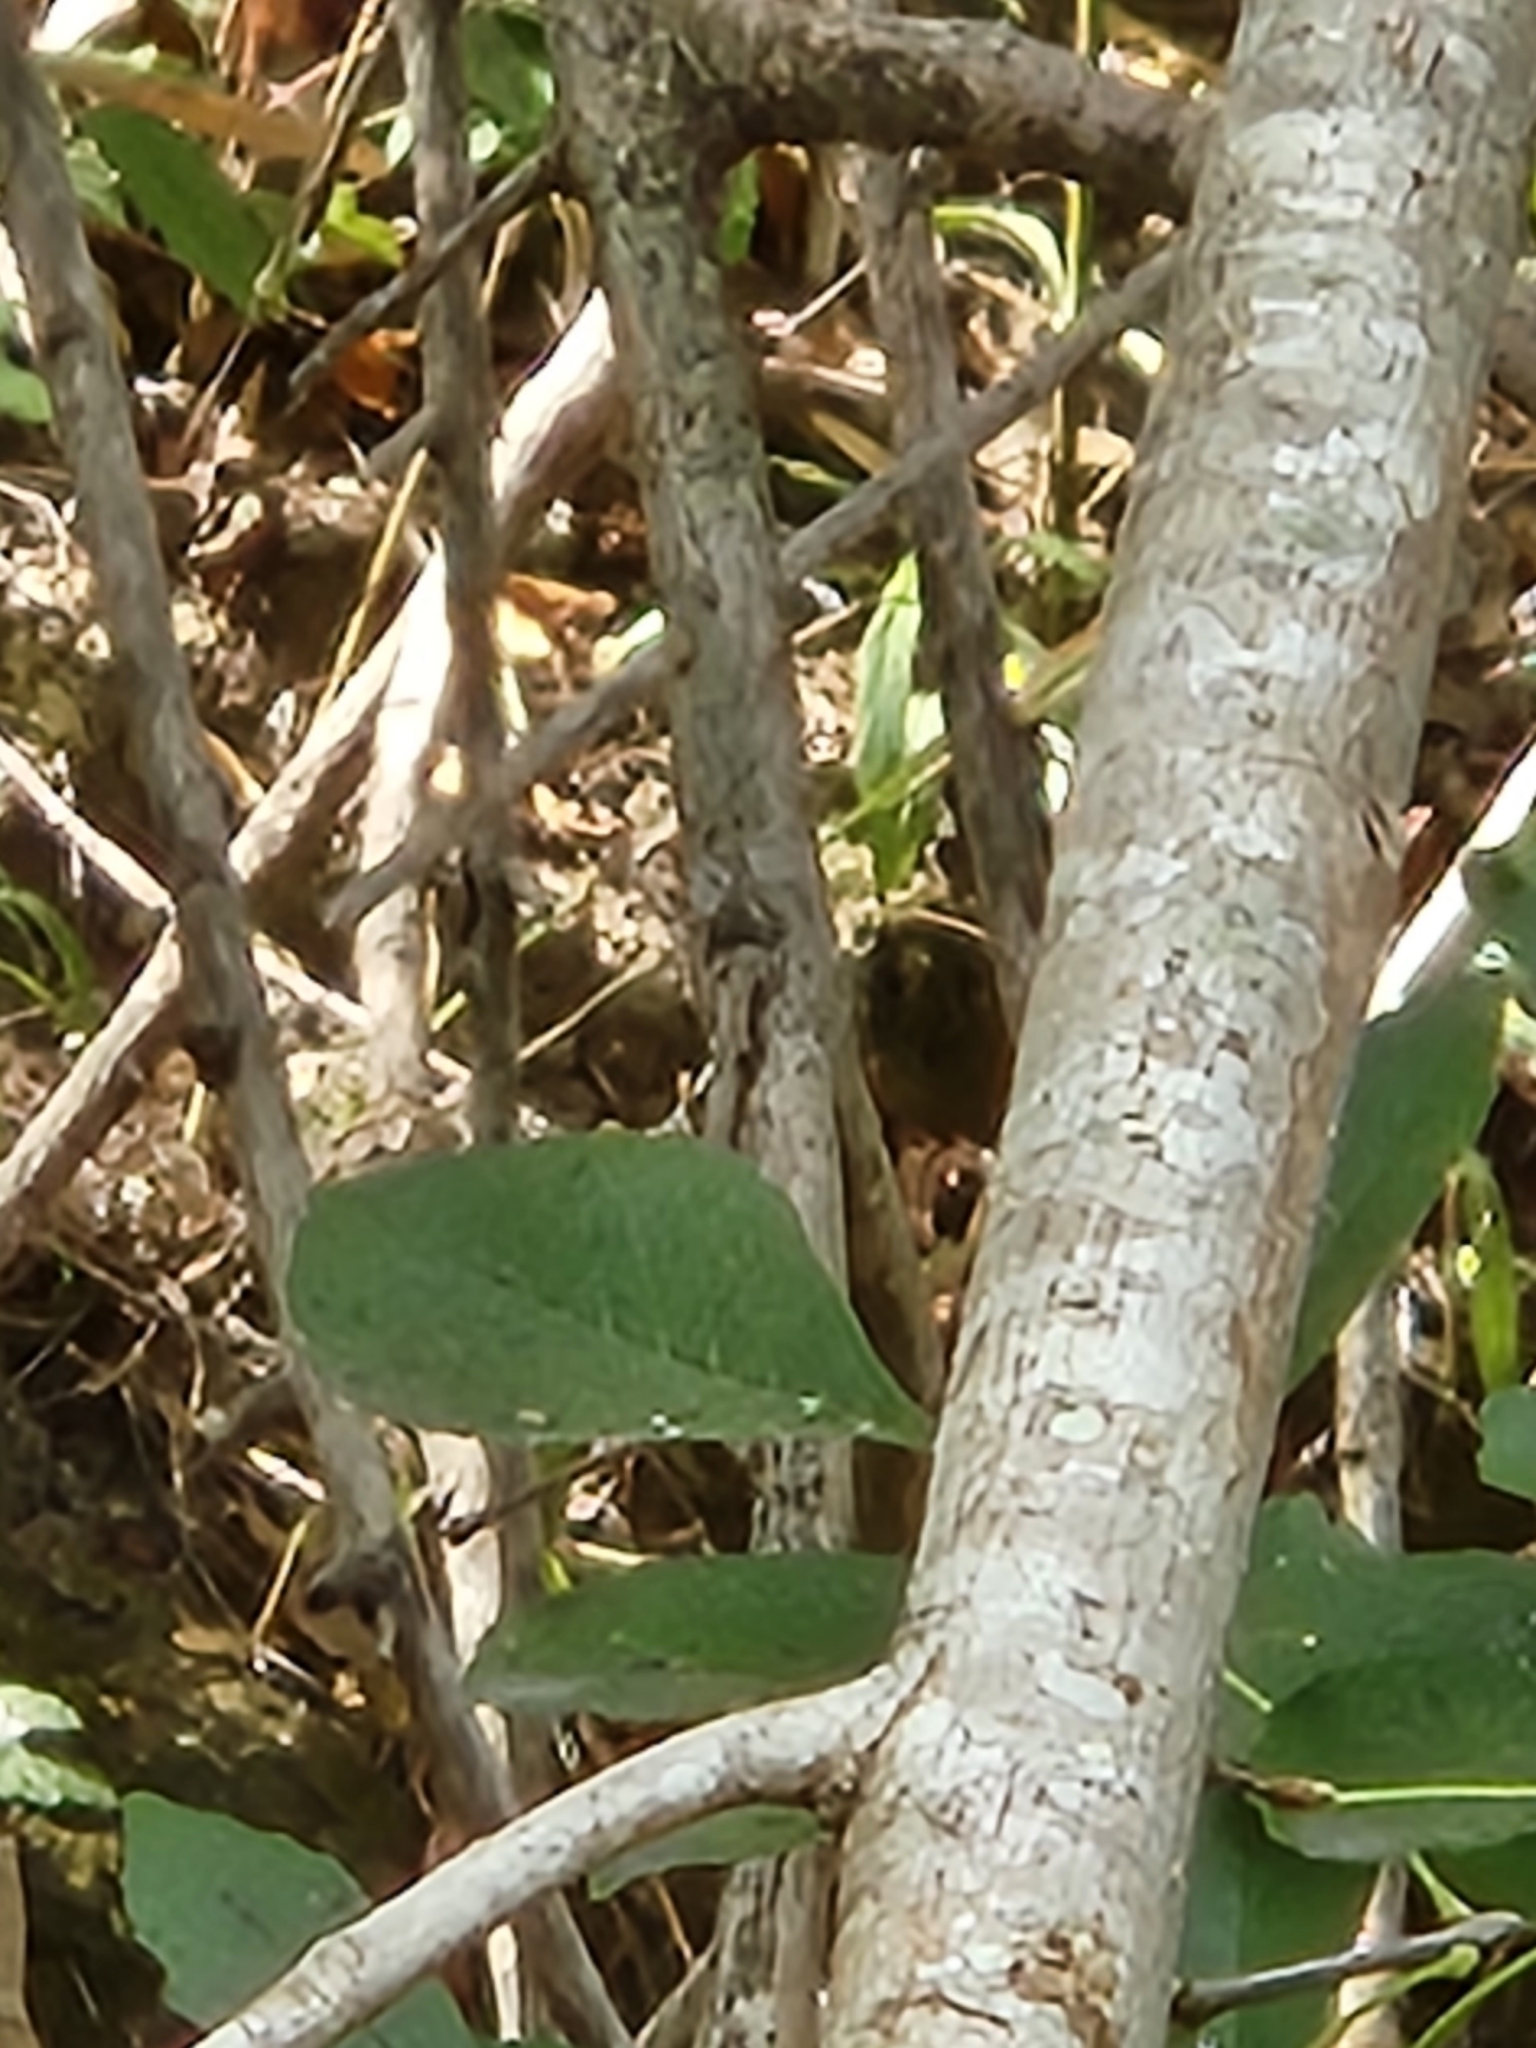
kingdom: Plantae
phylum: Tracheophyta
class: Magnoliopsida
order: Lamiales
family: Oleaceae
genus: Fraxinus
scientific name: Fraxinus berlandieriana
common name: Berlandier ash
